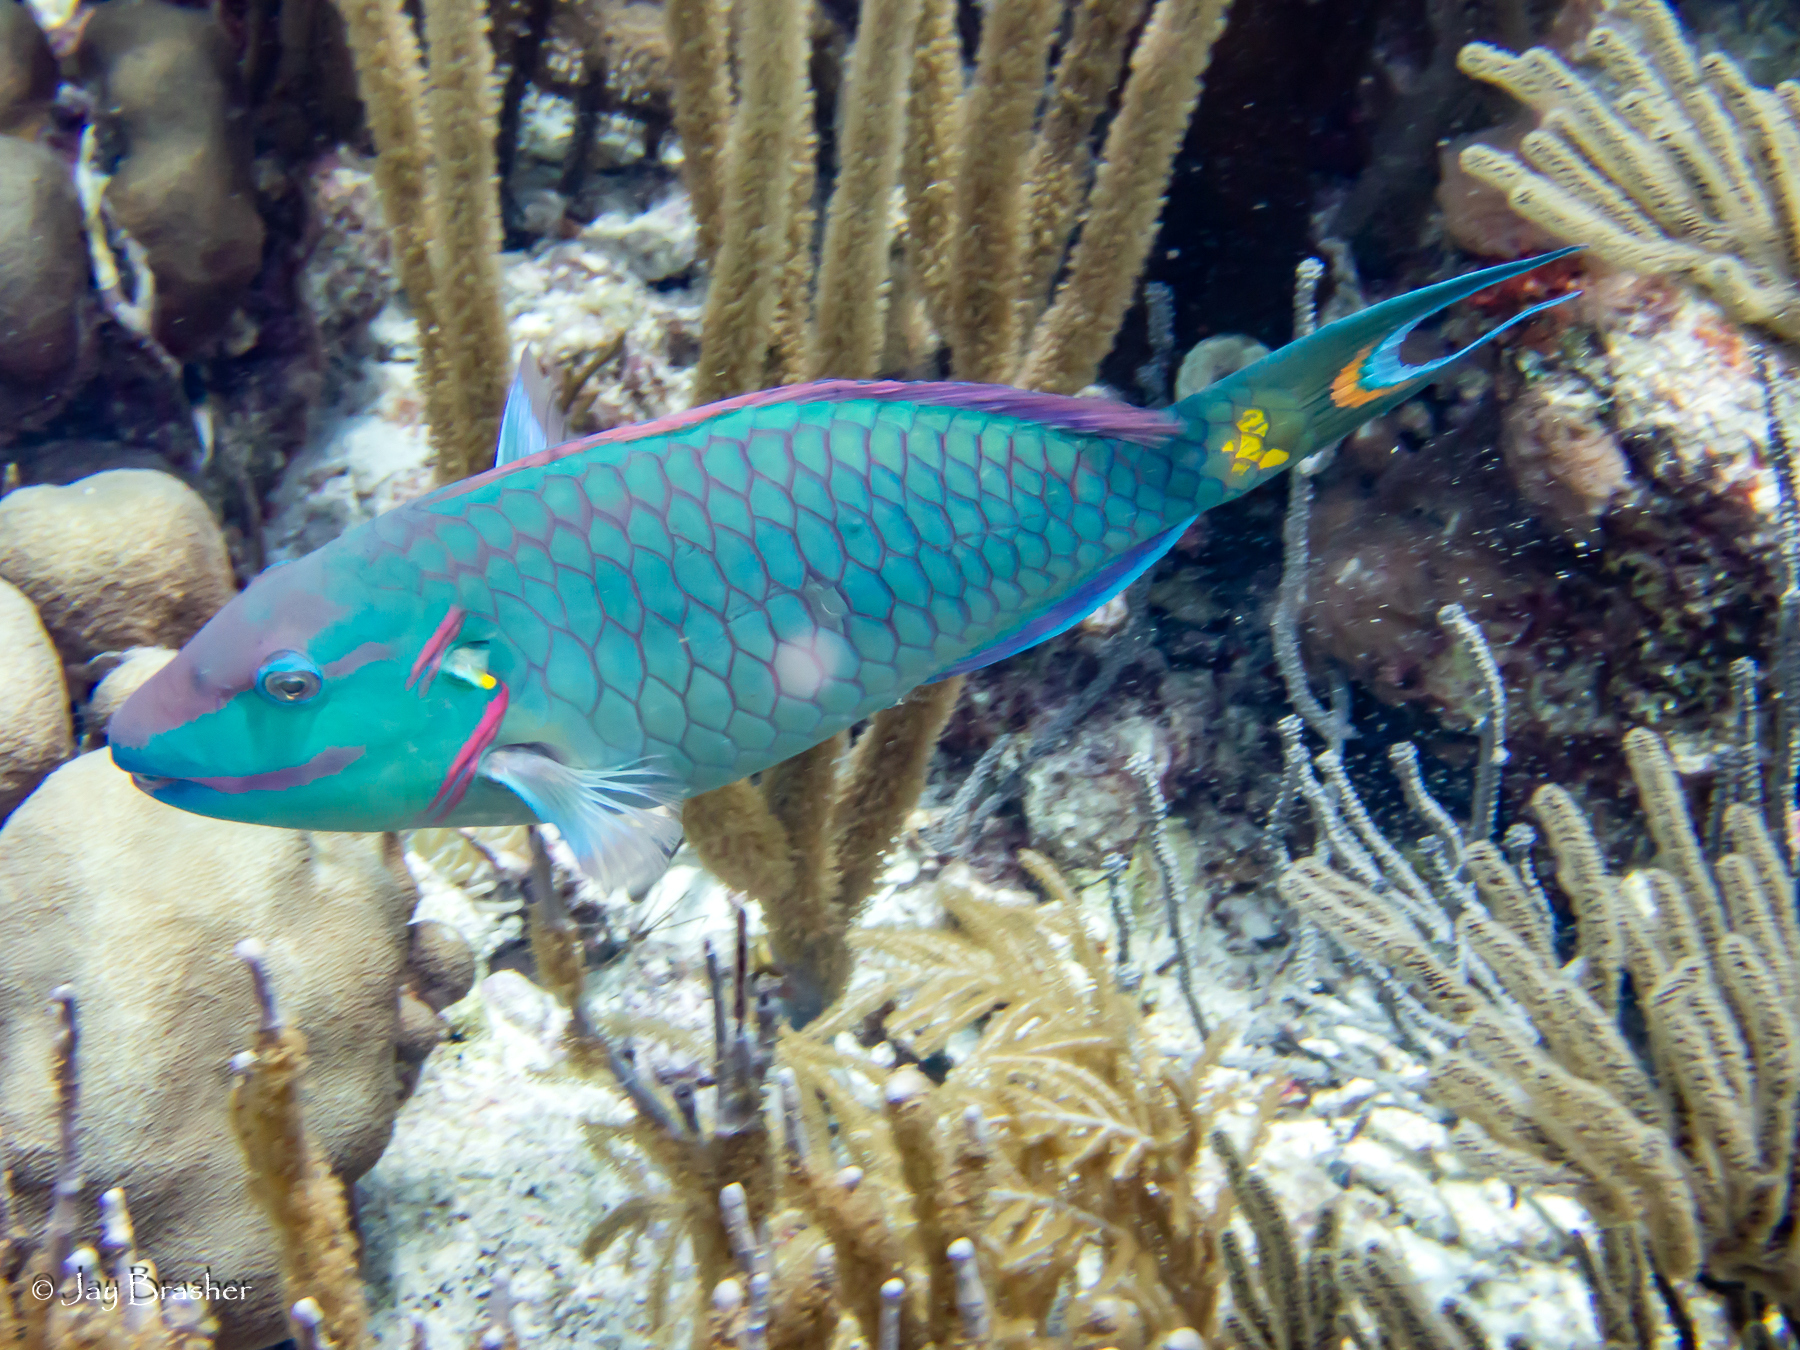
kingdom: Animalia
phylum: Chordata
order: Perciformes
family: Scaridae
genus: Sparisoma
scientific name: Sparisoma viride
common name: Stoplight parrotfish
